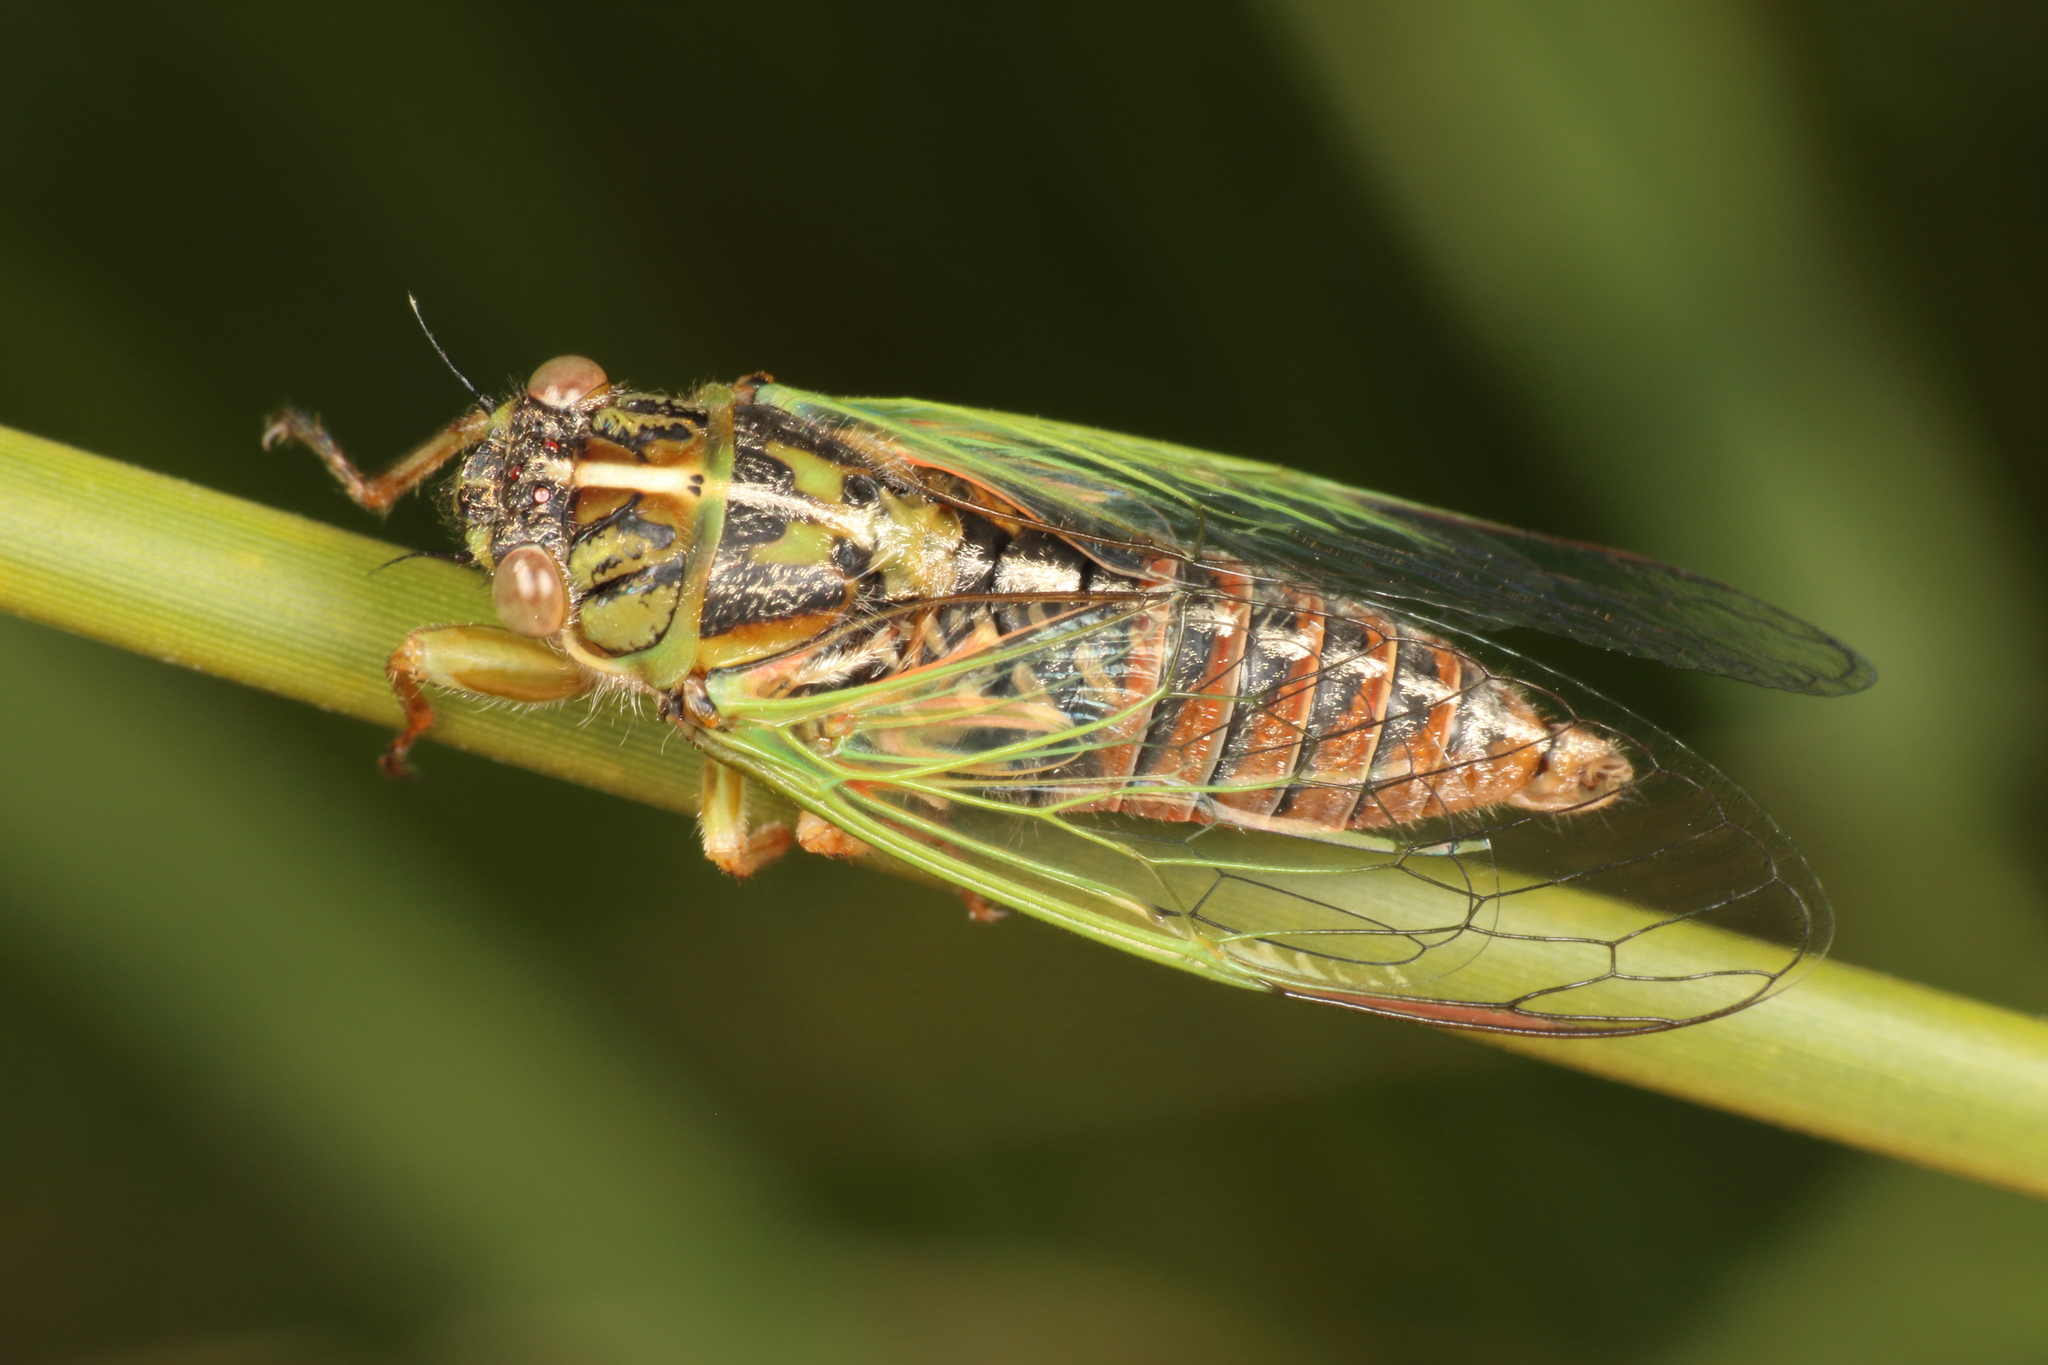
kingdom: Animalia
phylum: Arthropoda
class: Insecta
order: Hemiptera
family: Cicadidae
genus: Rhodopsalta
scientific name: Rhodopsalta cruentata
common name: Blood redtail cicada
